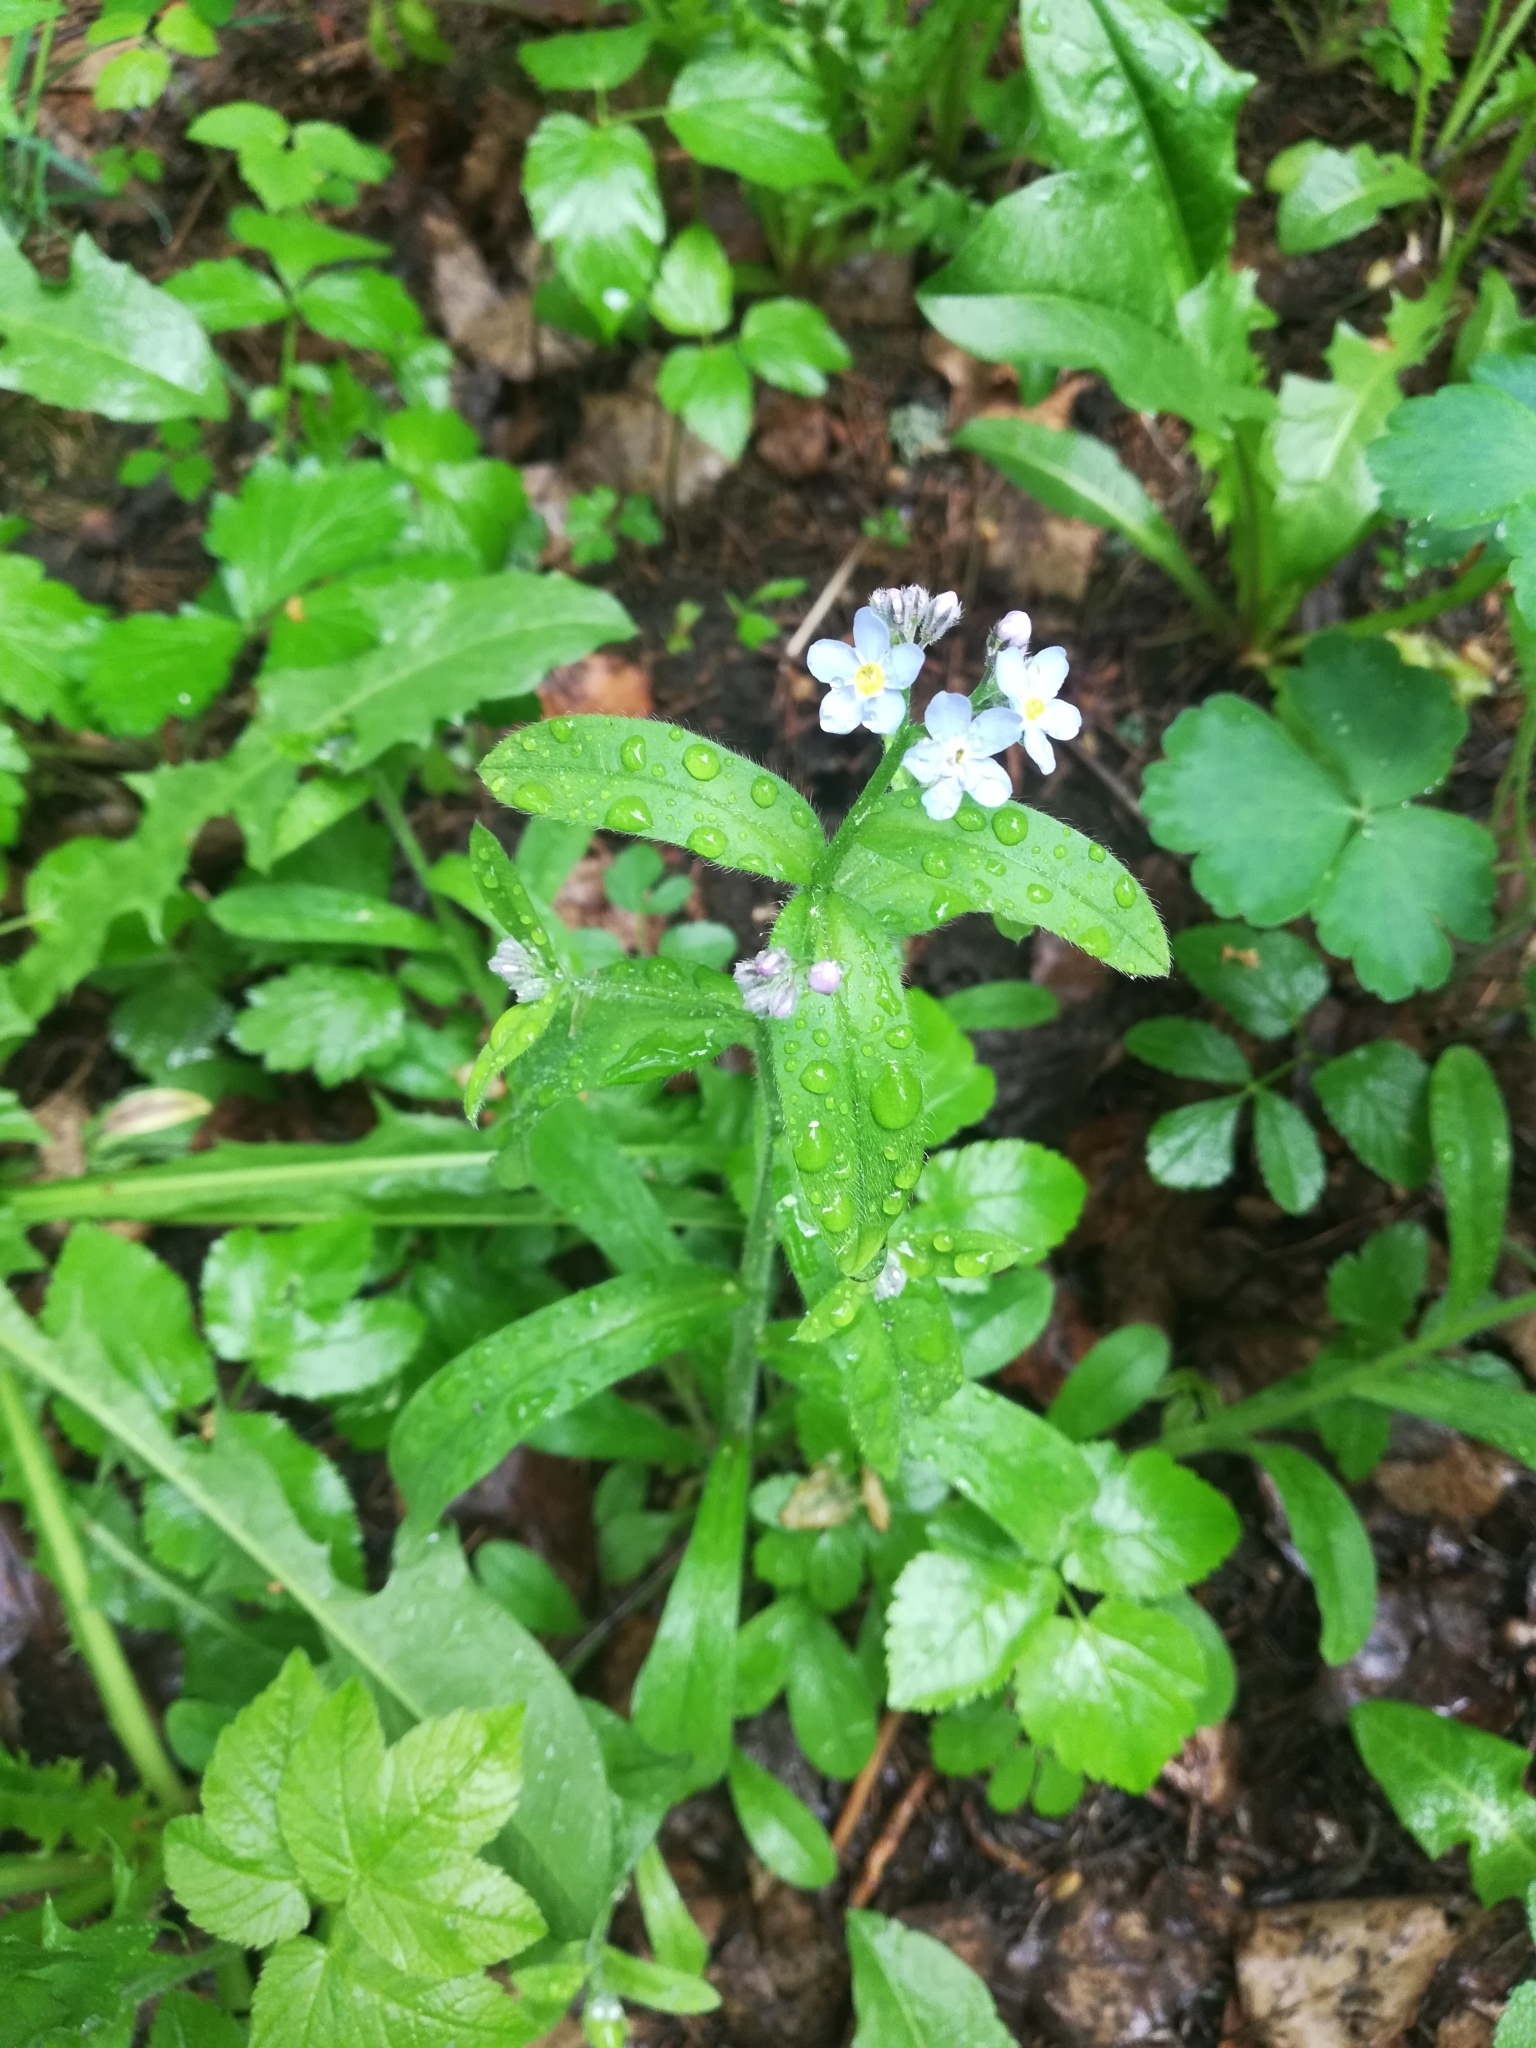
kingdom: Plantae
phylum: Tracheophyta
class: Magnoliopsida
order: Boraginales
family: Boraginaceae
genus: Myosotis
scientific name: Myosotis sylvatica
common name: Wood forget-me-not
